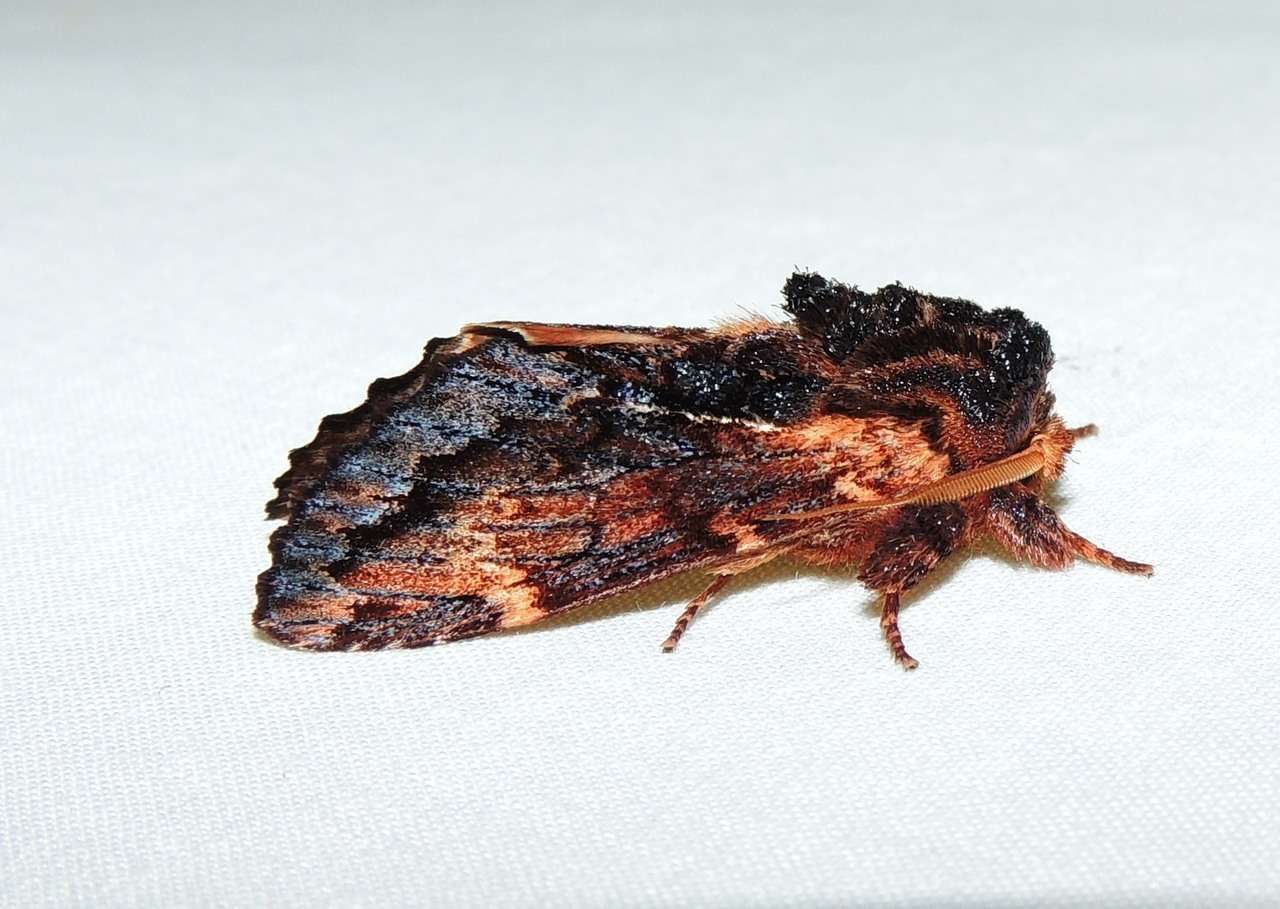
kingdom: Animalia
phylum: Arthropoda
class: Insecta
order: Lepidoptera
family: Notodontidae
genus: Sorama
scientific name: Sorama bicolor
